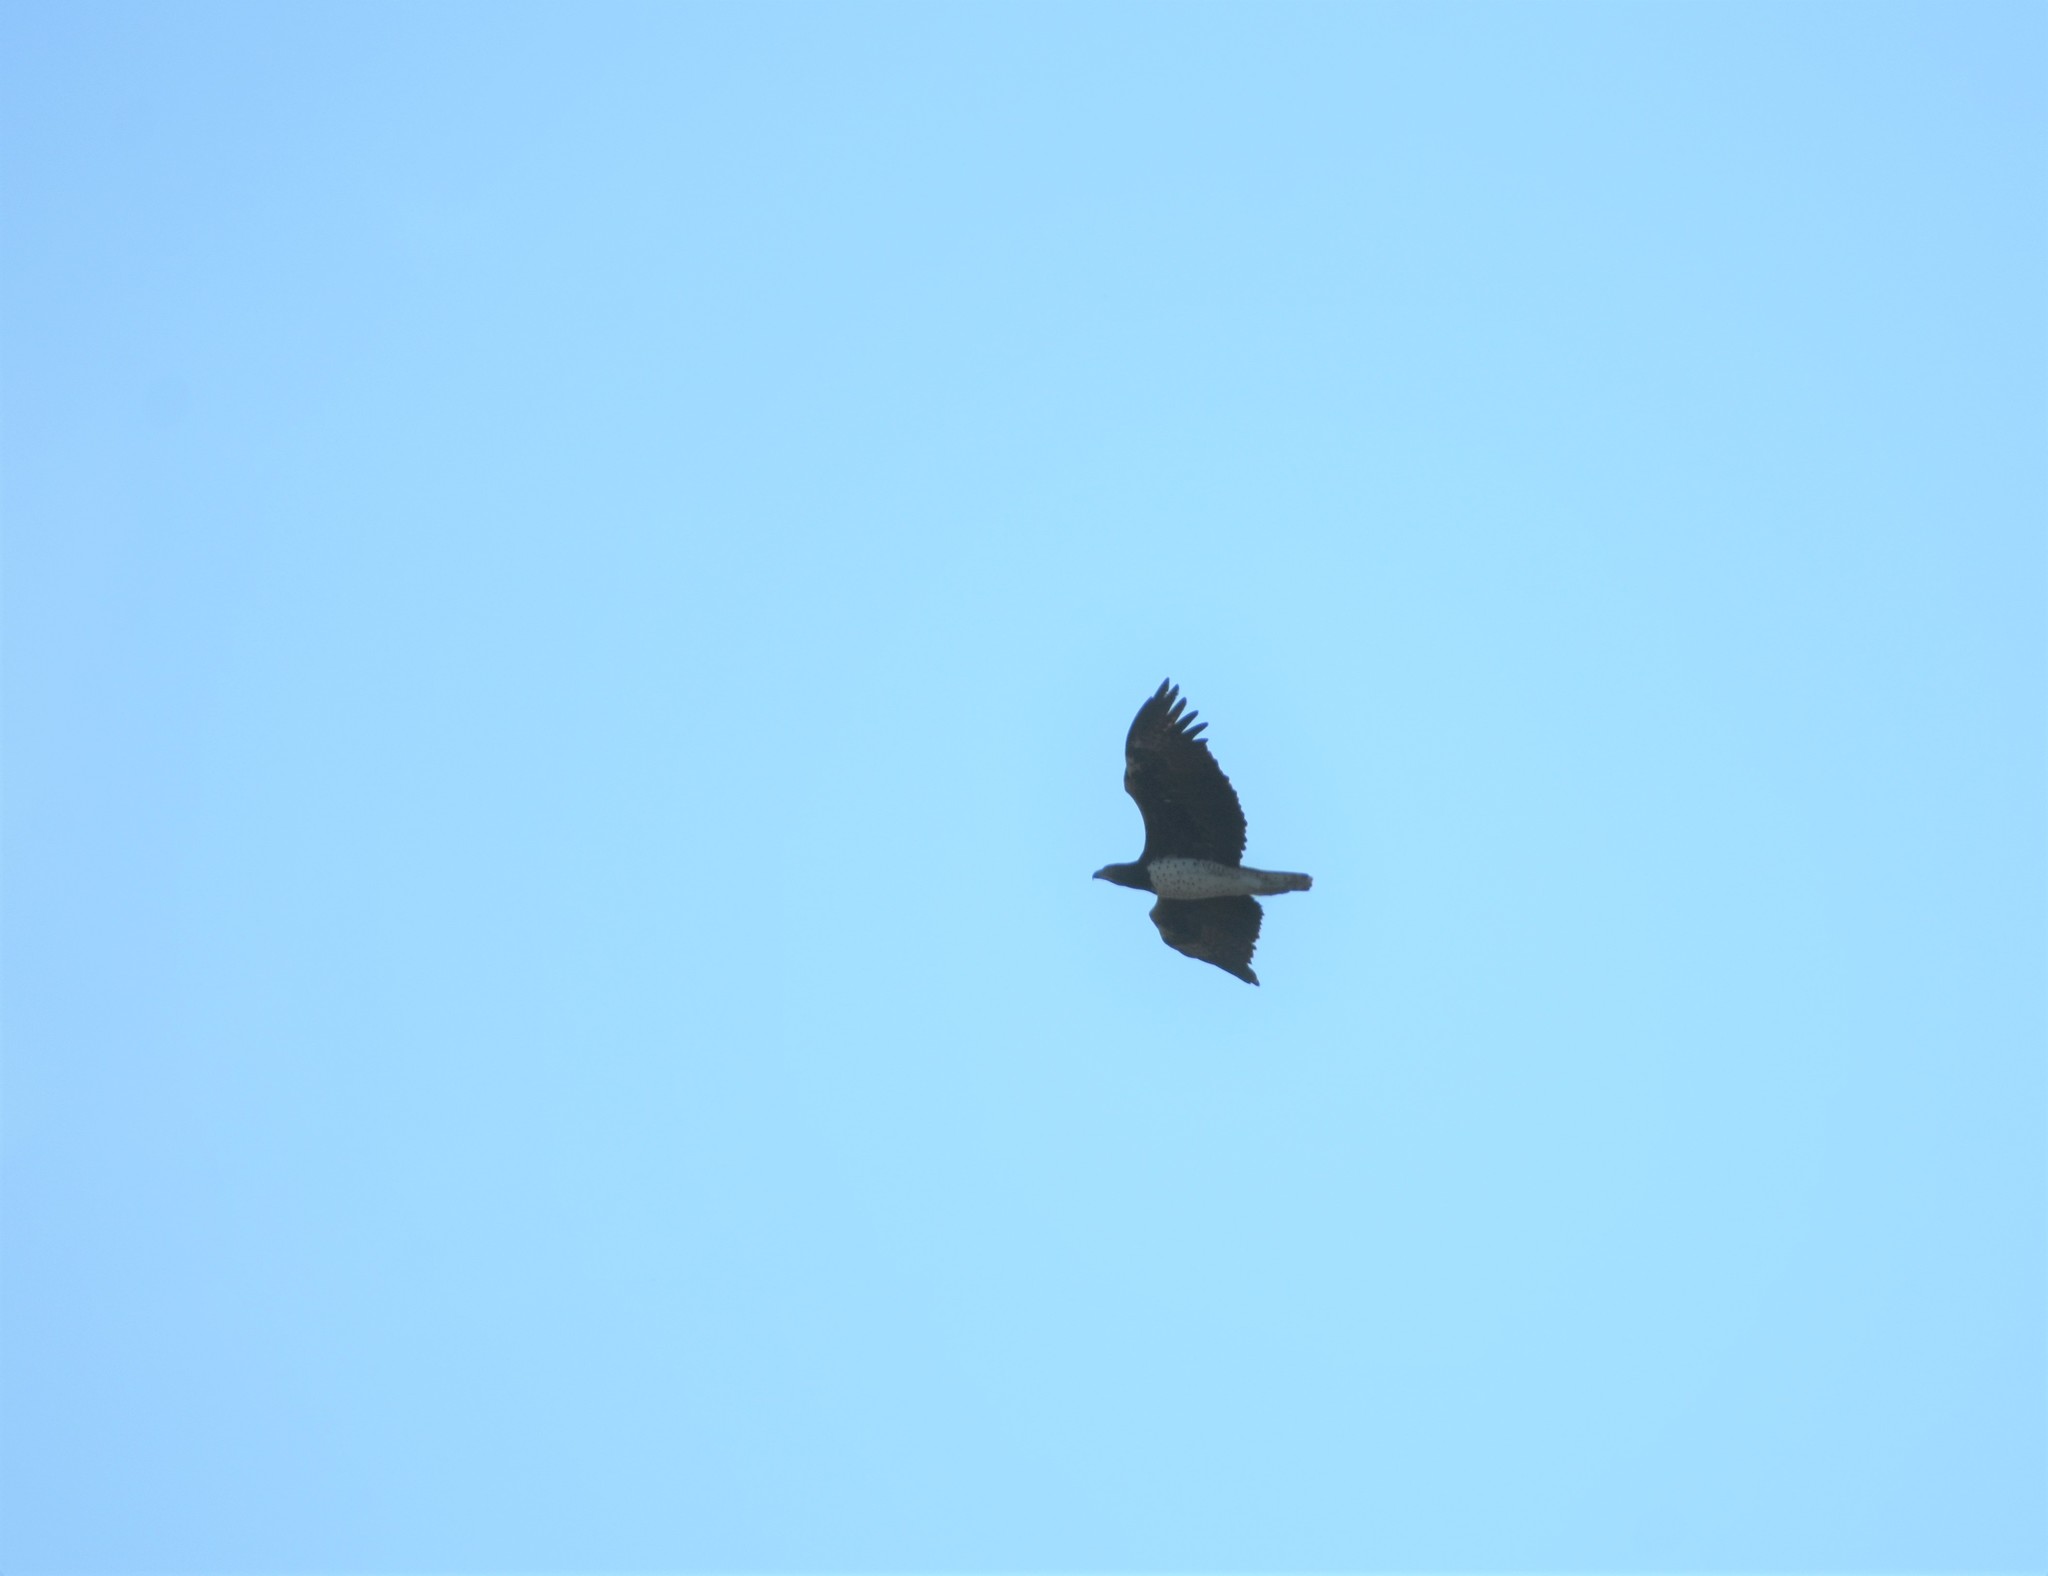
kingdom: Animalia
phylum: Chordata
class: Aves
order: Accipitriformes
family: Accipitridae
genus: Polemaetus
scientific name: Polemaetus bellicosus
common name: Martial eagle
